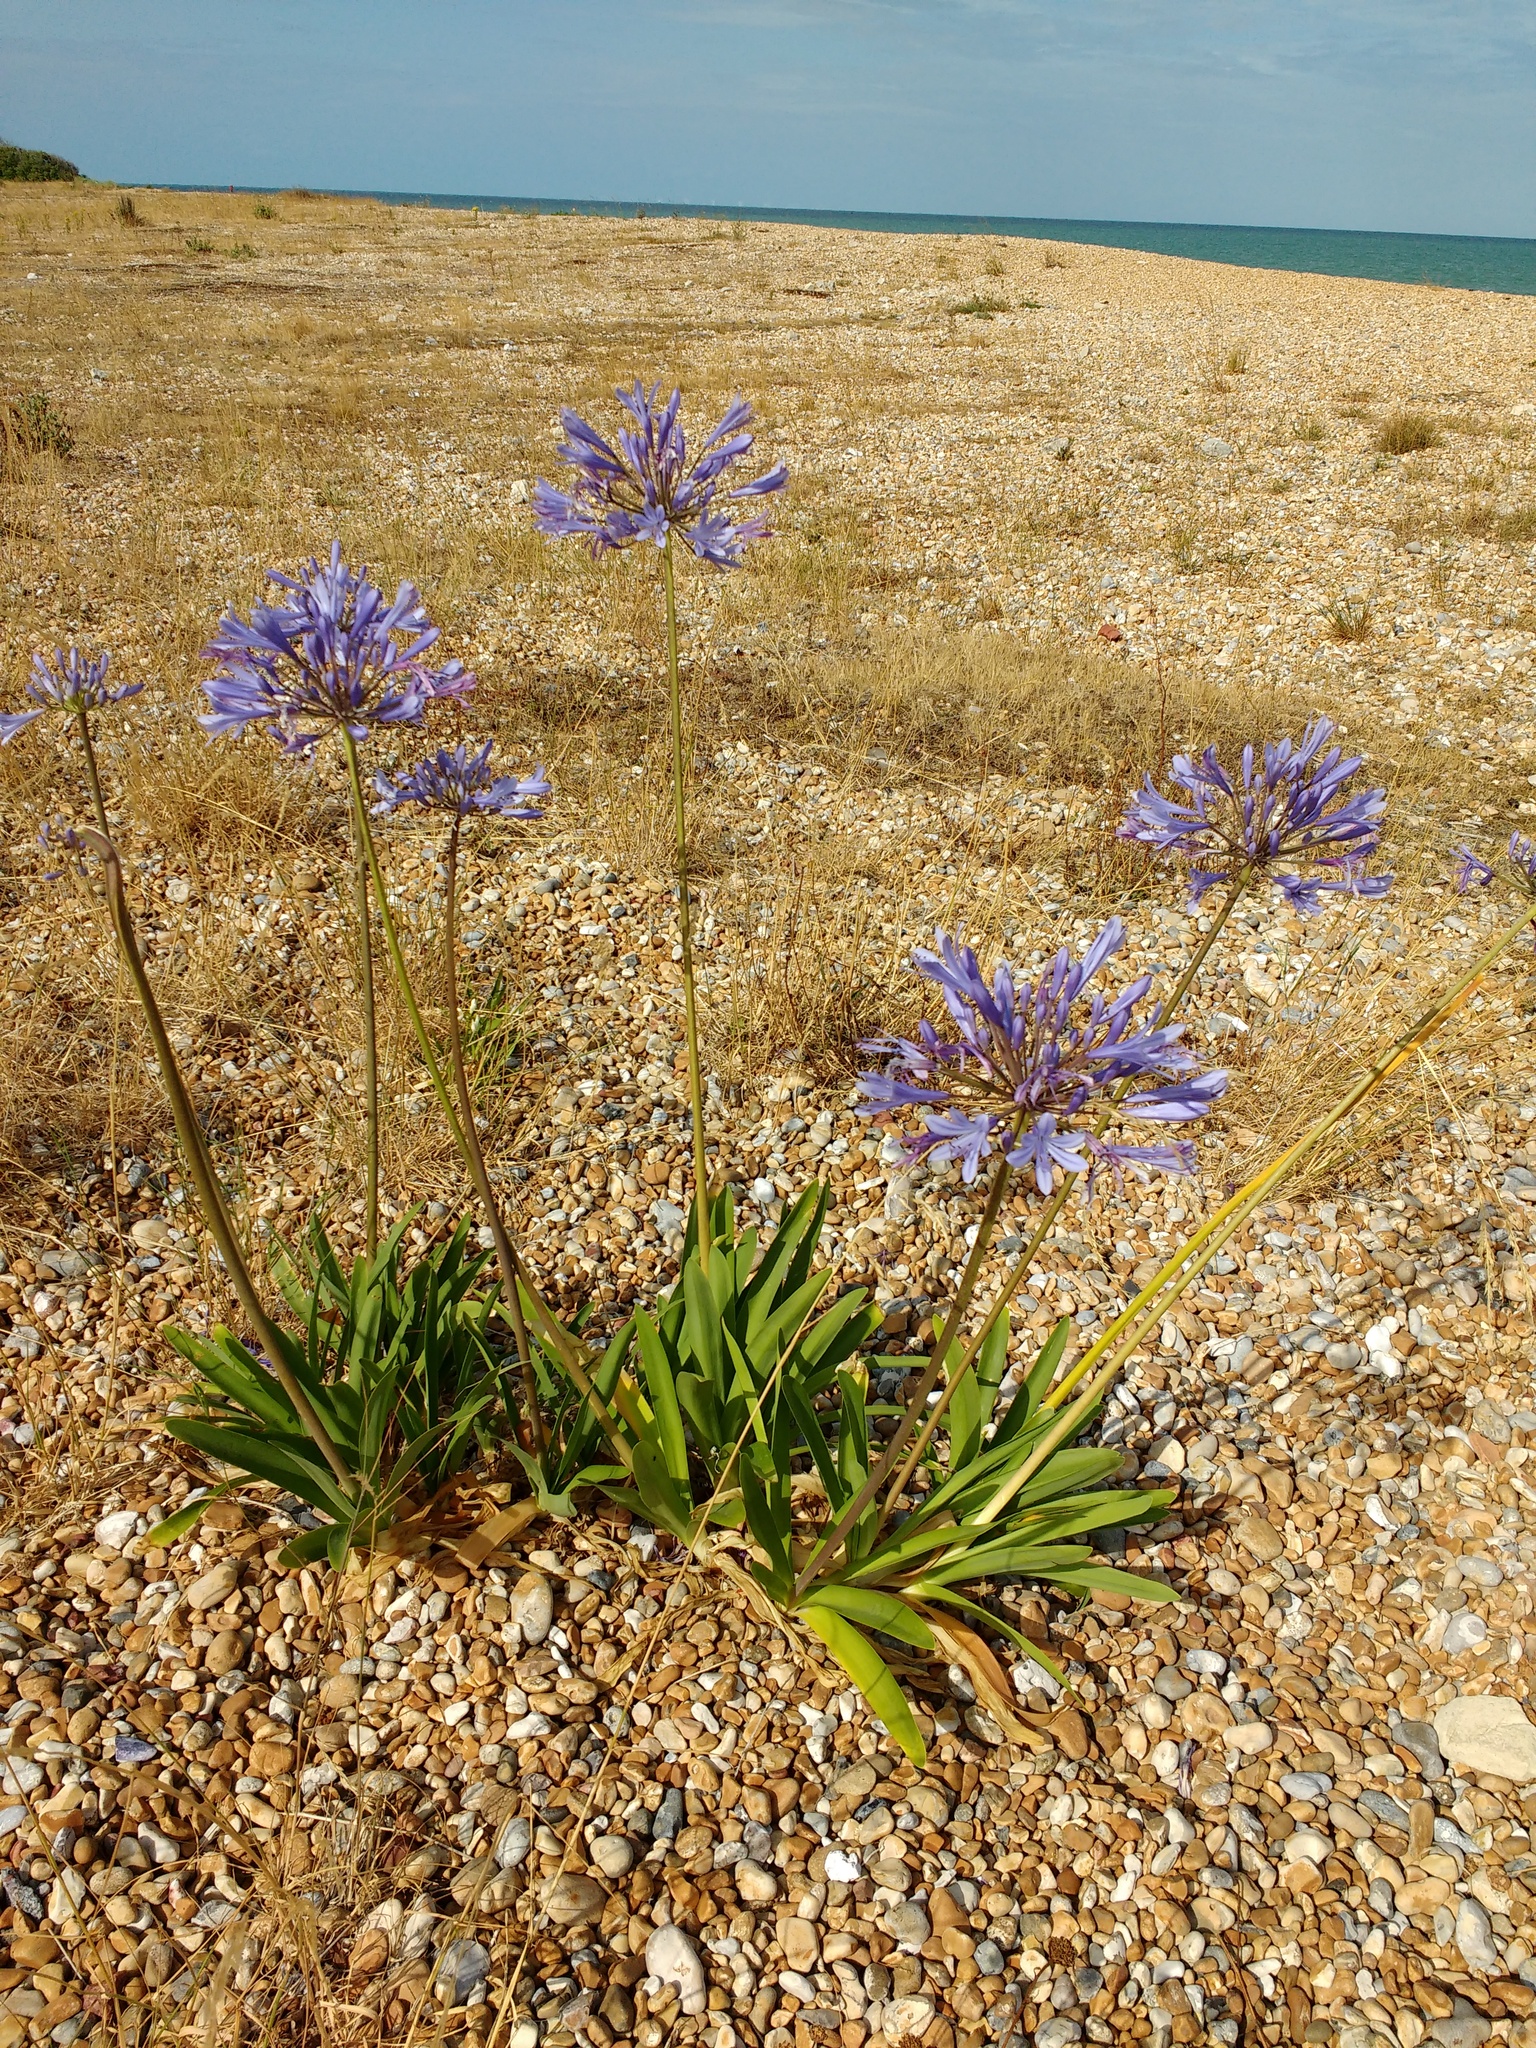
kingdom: Plantae
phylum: Tracheophyta
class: Liliopsida
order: Asparagales
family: Amaryllidaceae
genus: Agapanthus
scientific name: Agapanthus praecox
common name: African-lily
